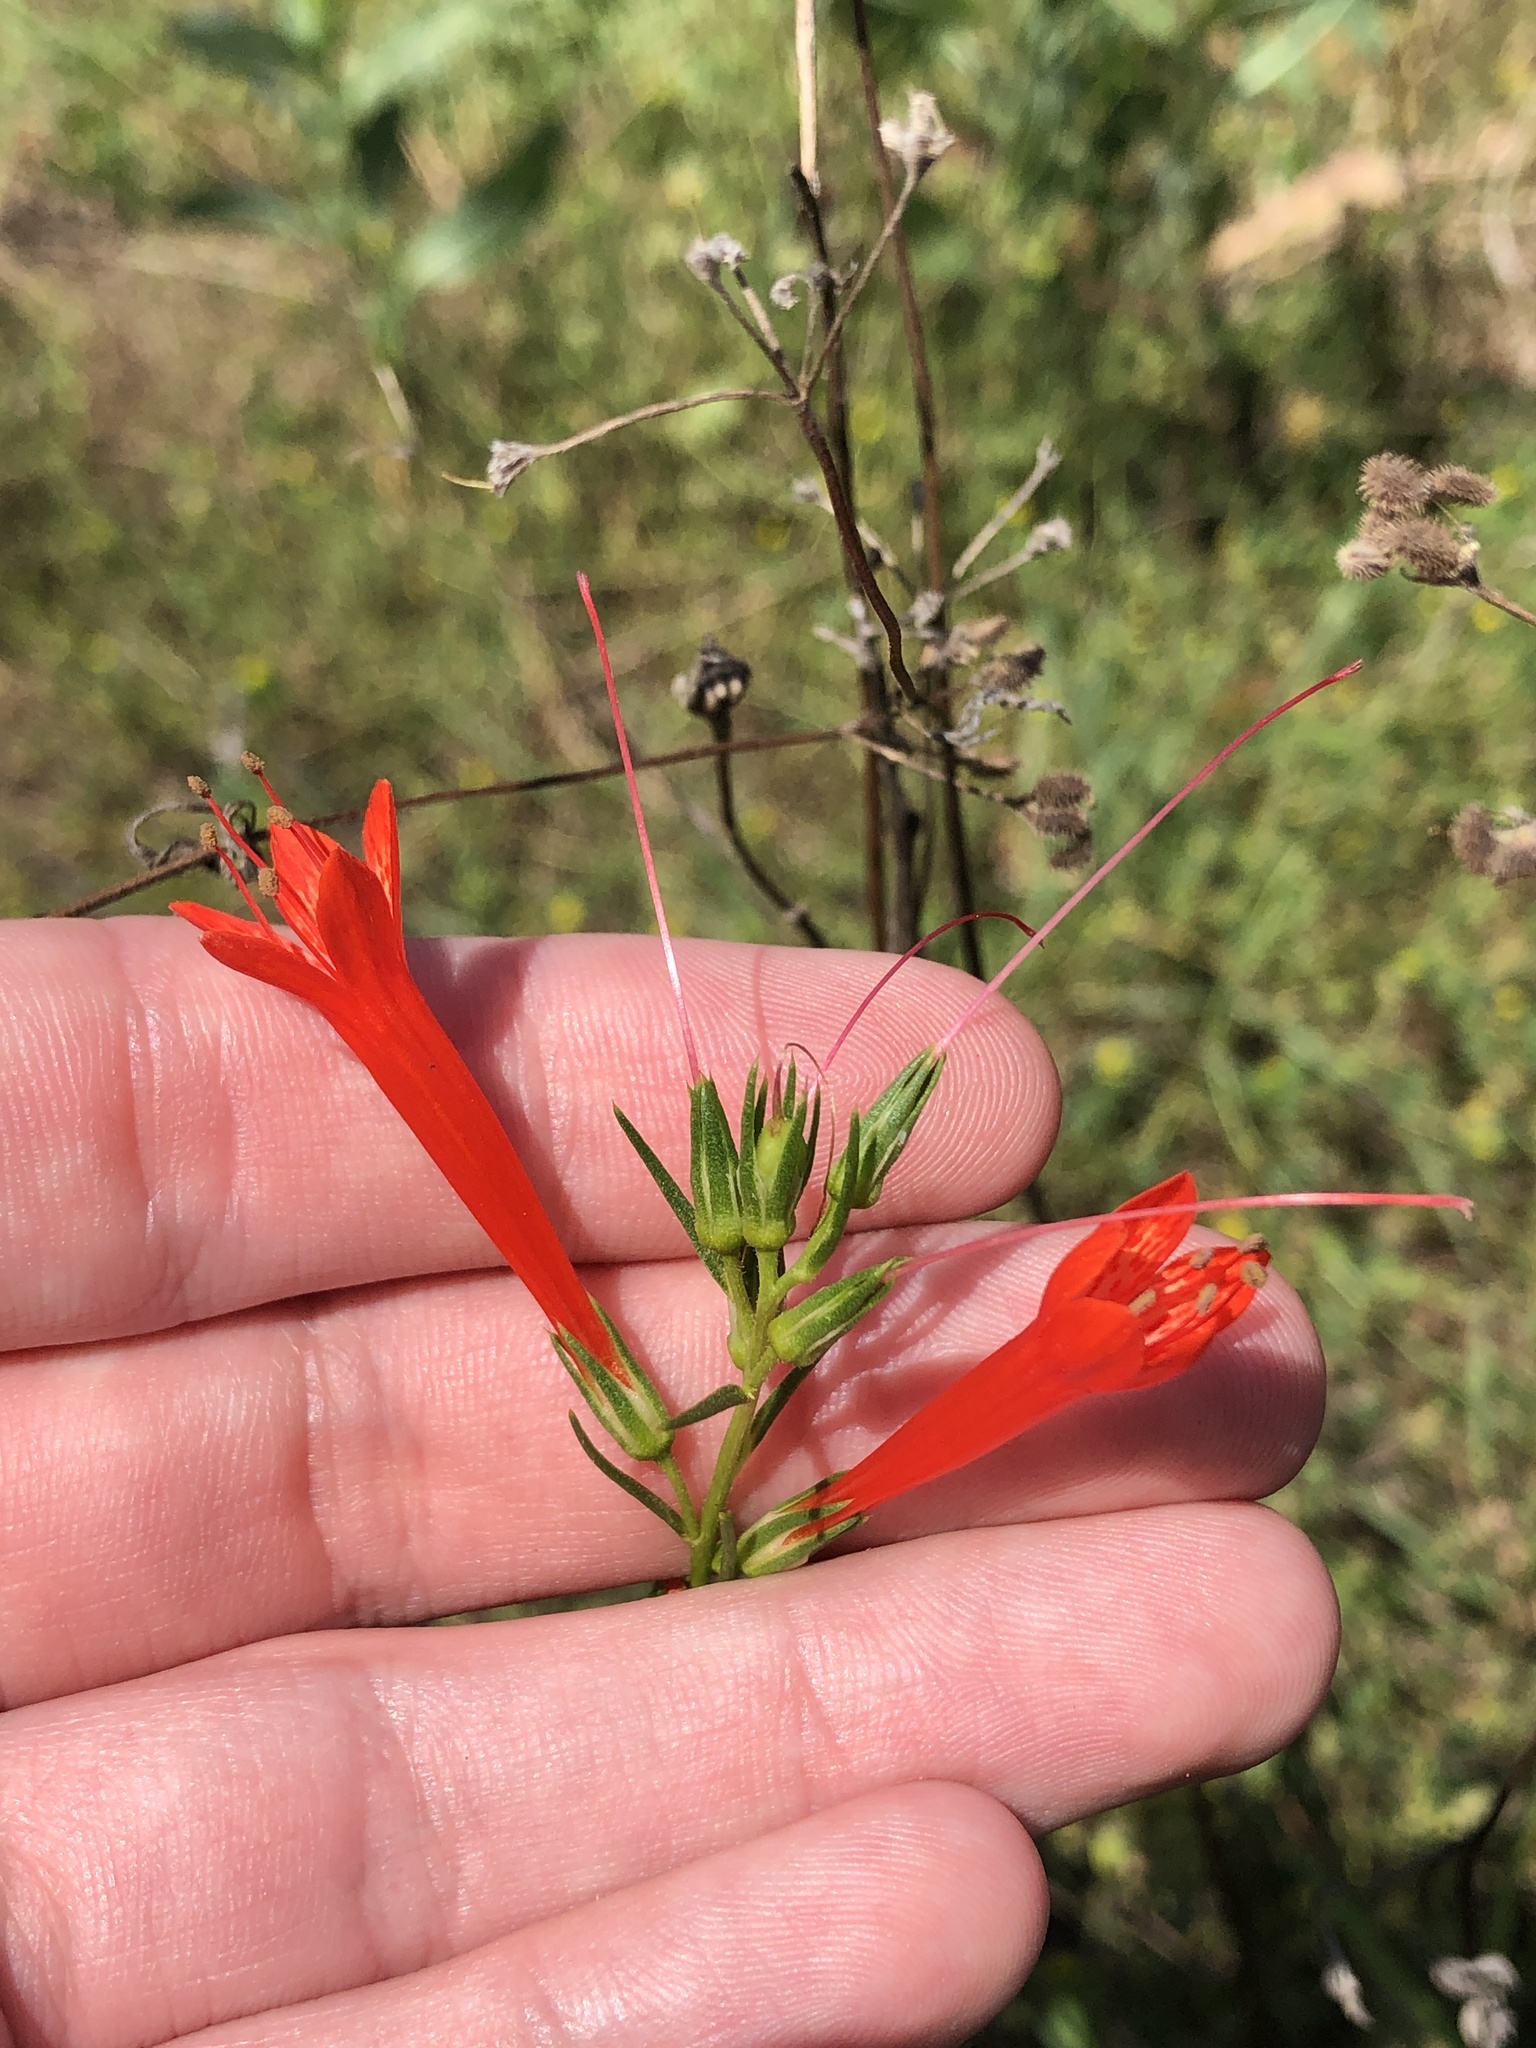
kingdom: Plantae
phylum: Tracheophyta
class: Magnoliopsida
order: Ericales
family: Polemoniaceae
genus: Ipomopsis
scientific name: Ipomopsis rubra
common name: Skyrocket
